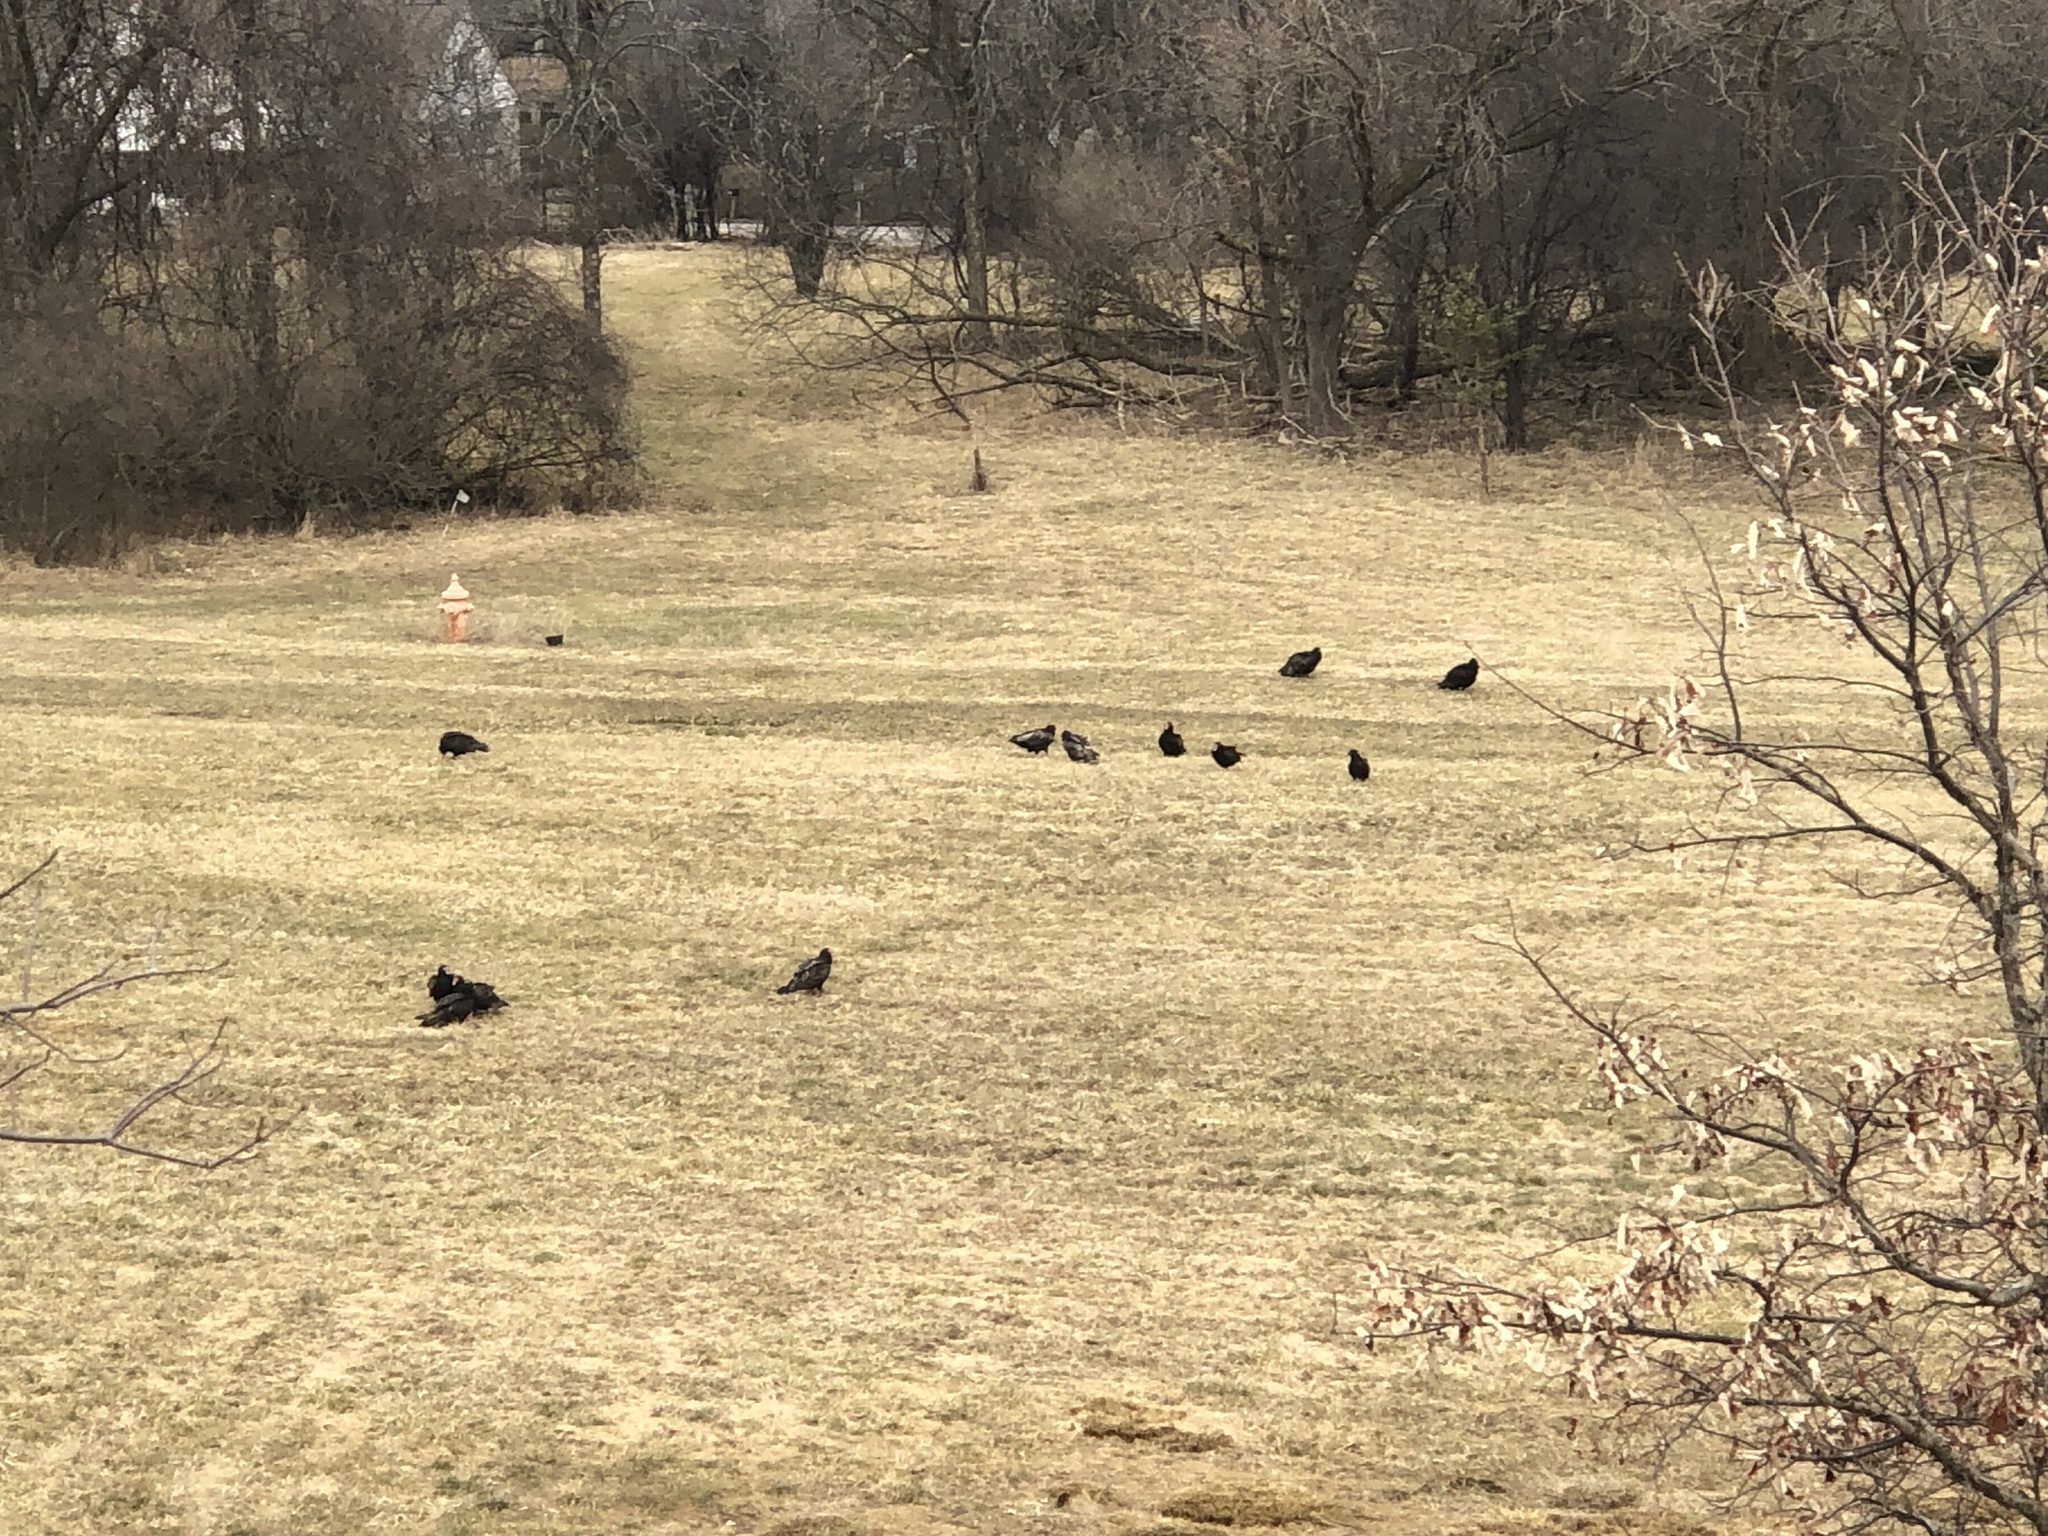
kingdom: Animalia
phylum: Chordata
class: Aves
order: Accipitriformes
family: Cathartidae
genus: Cathartes
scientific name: Cathartes aura
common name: Turkey vulture
